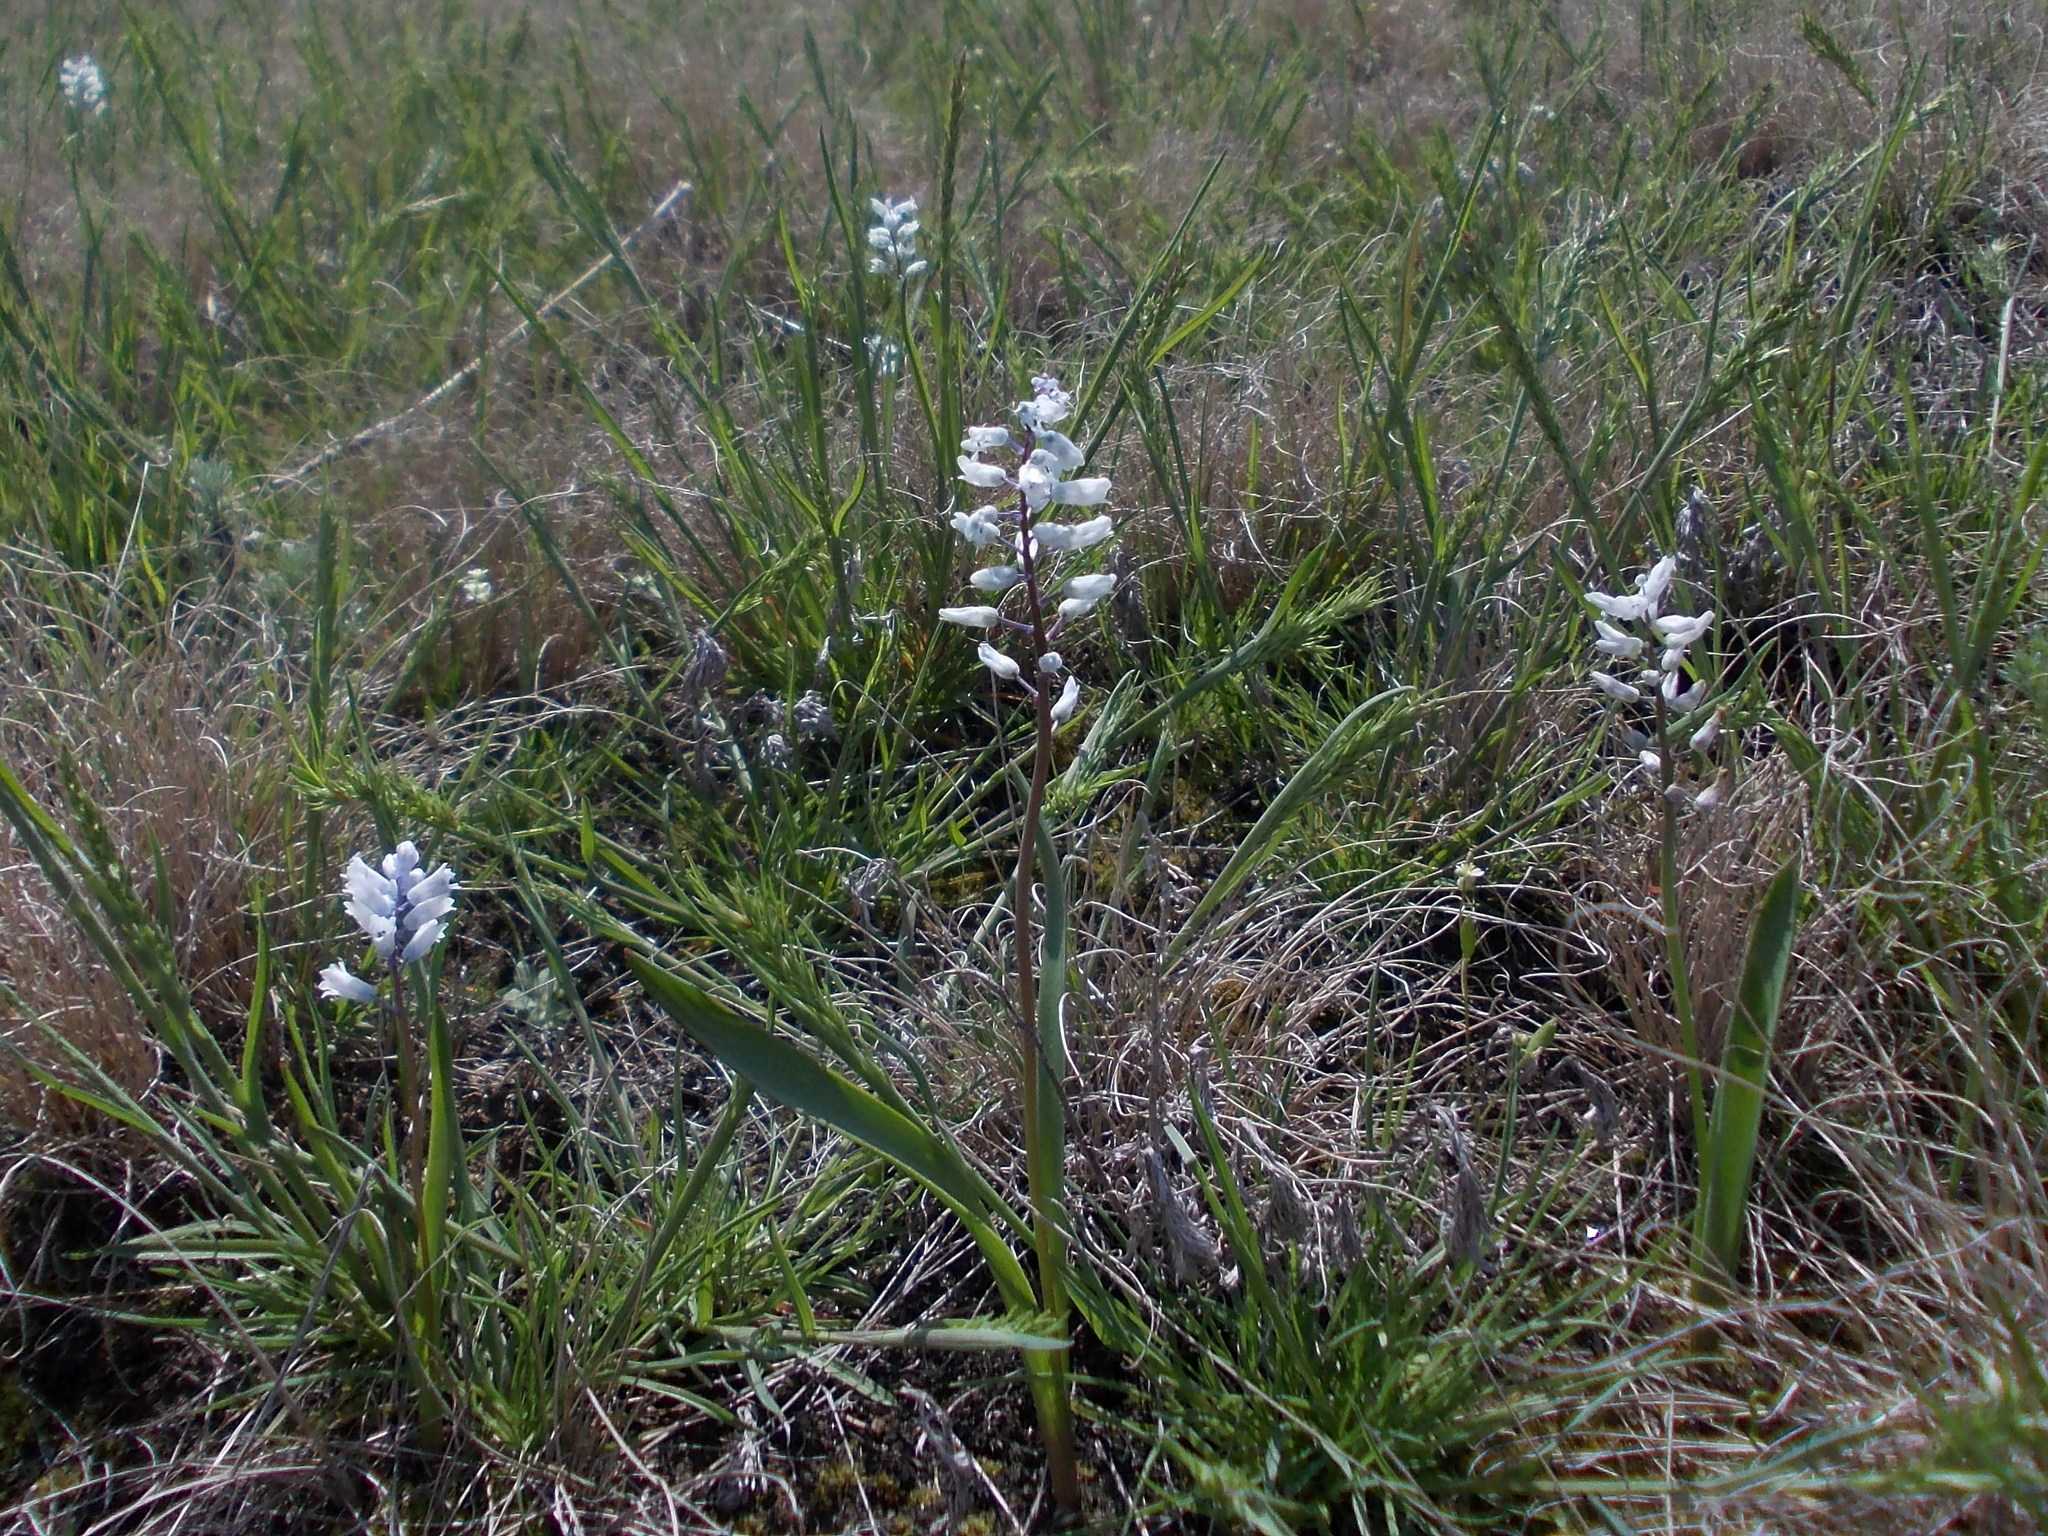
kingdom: Plantae
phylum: Tracheophyta
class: Liliopsida
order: Asparagales
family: Asparagaceae
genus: Hyacinthella
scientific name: Hyacinthella leucophaea
